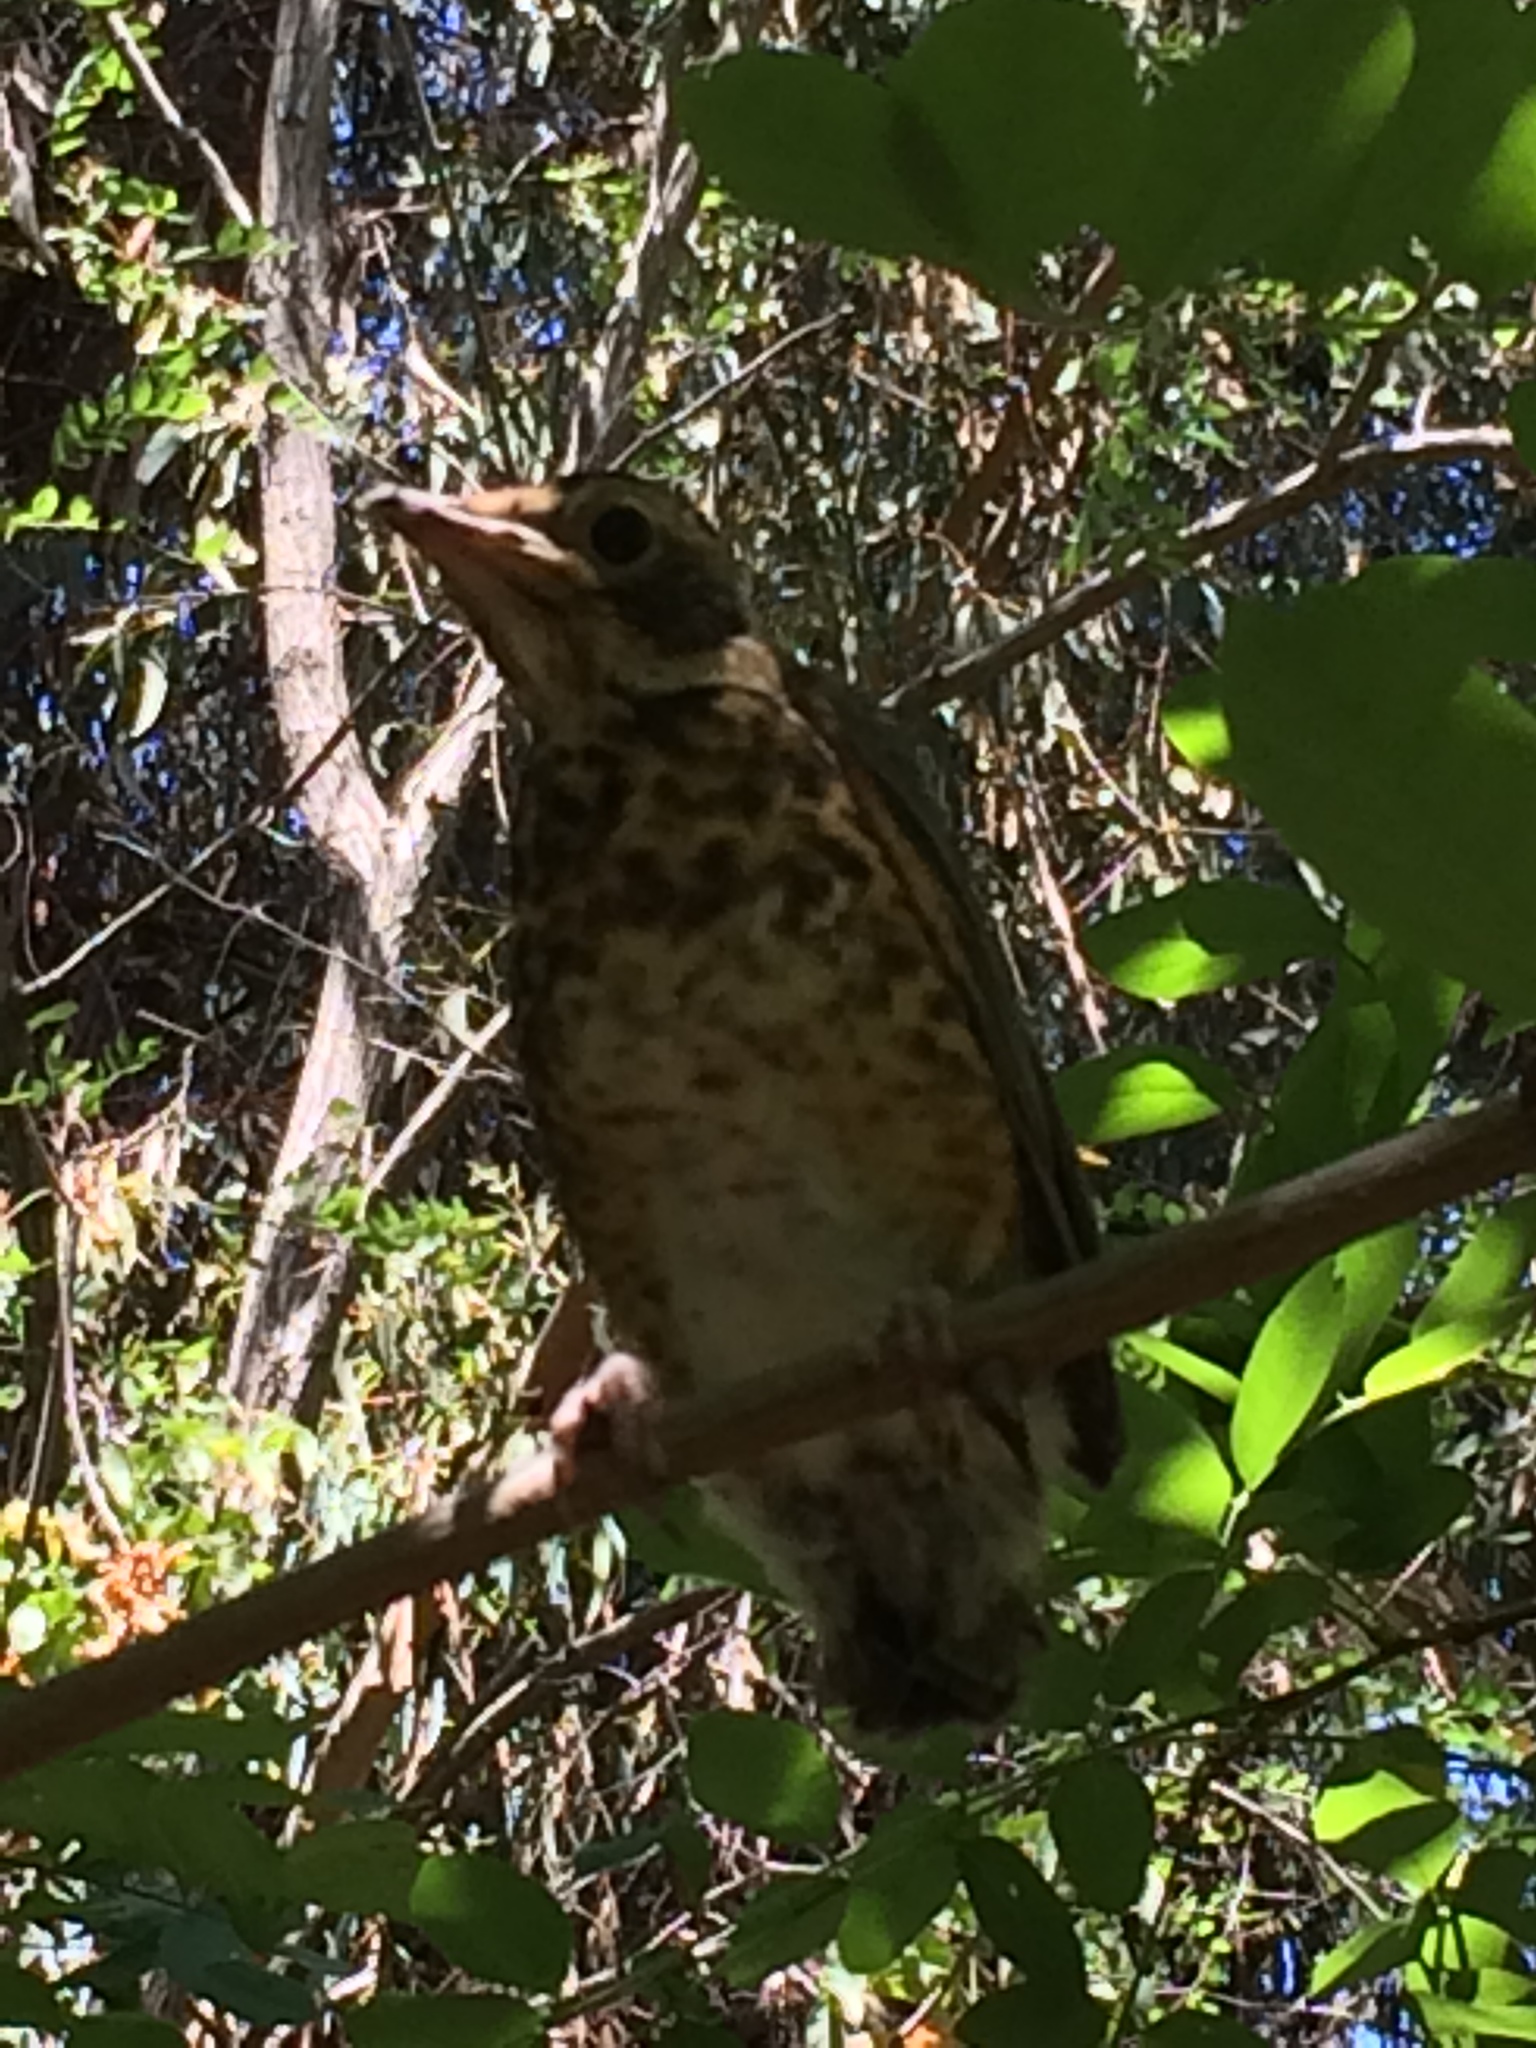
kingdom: Animalia
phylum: Chordata
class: Aves
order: Passeriformes
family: Turdidae
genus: Turdus
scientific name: Turdus migratorius
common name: American robin
